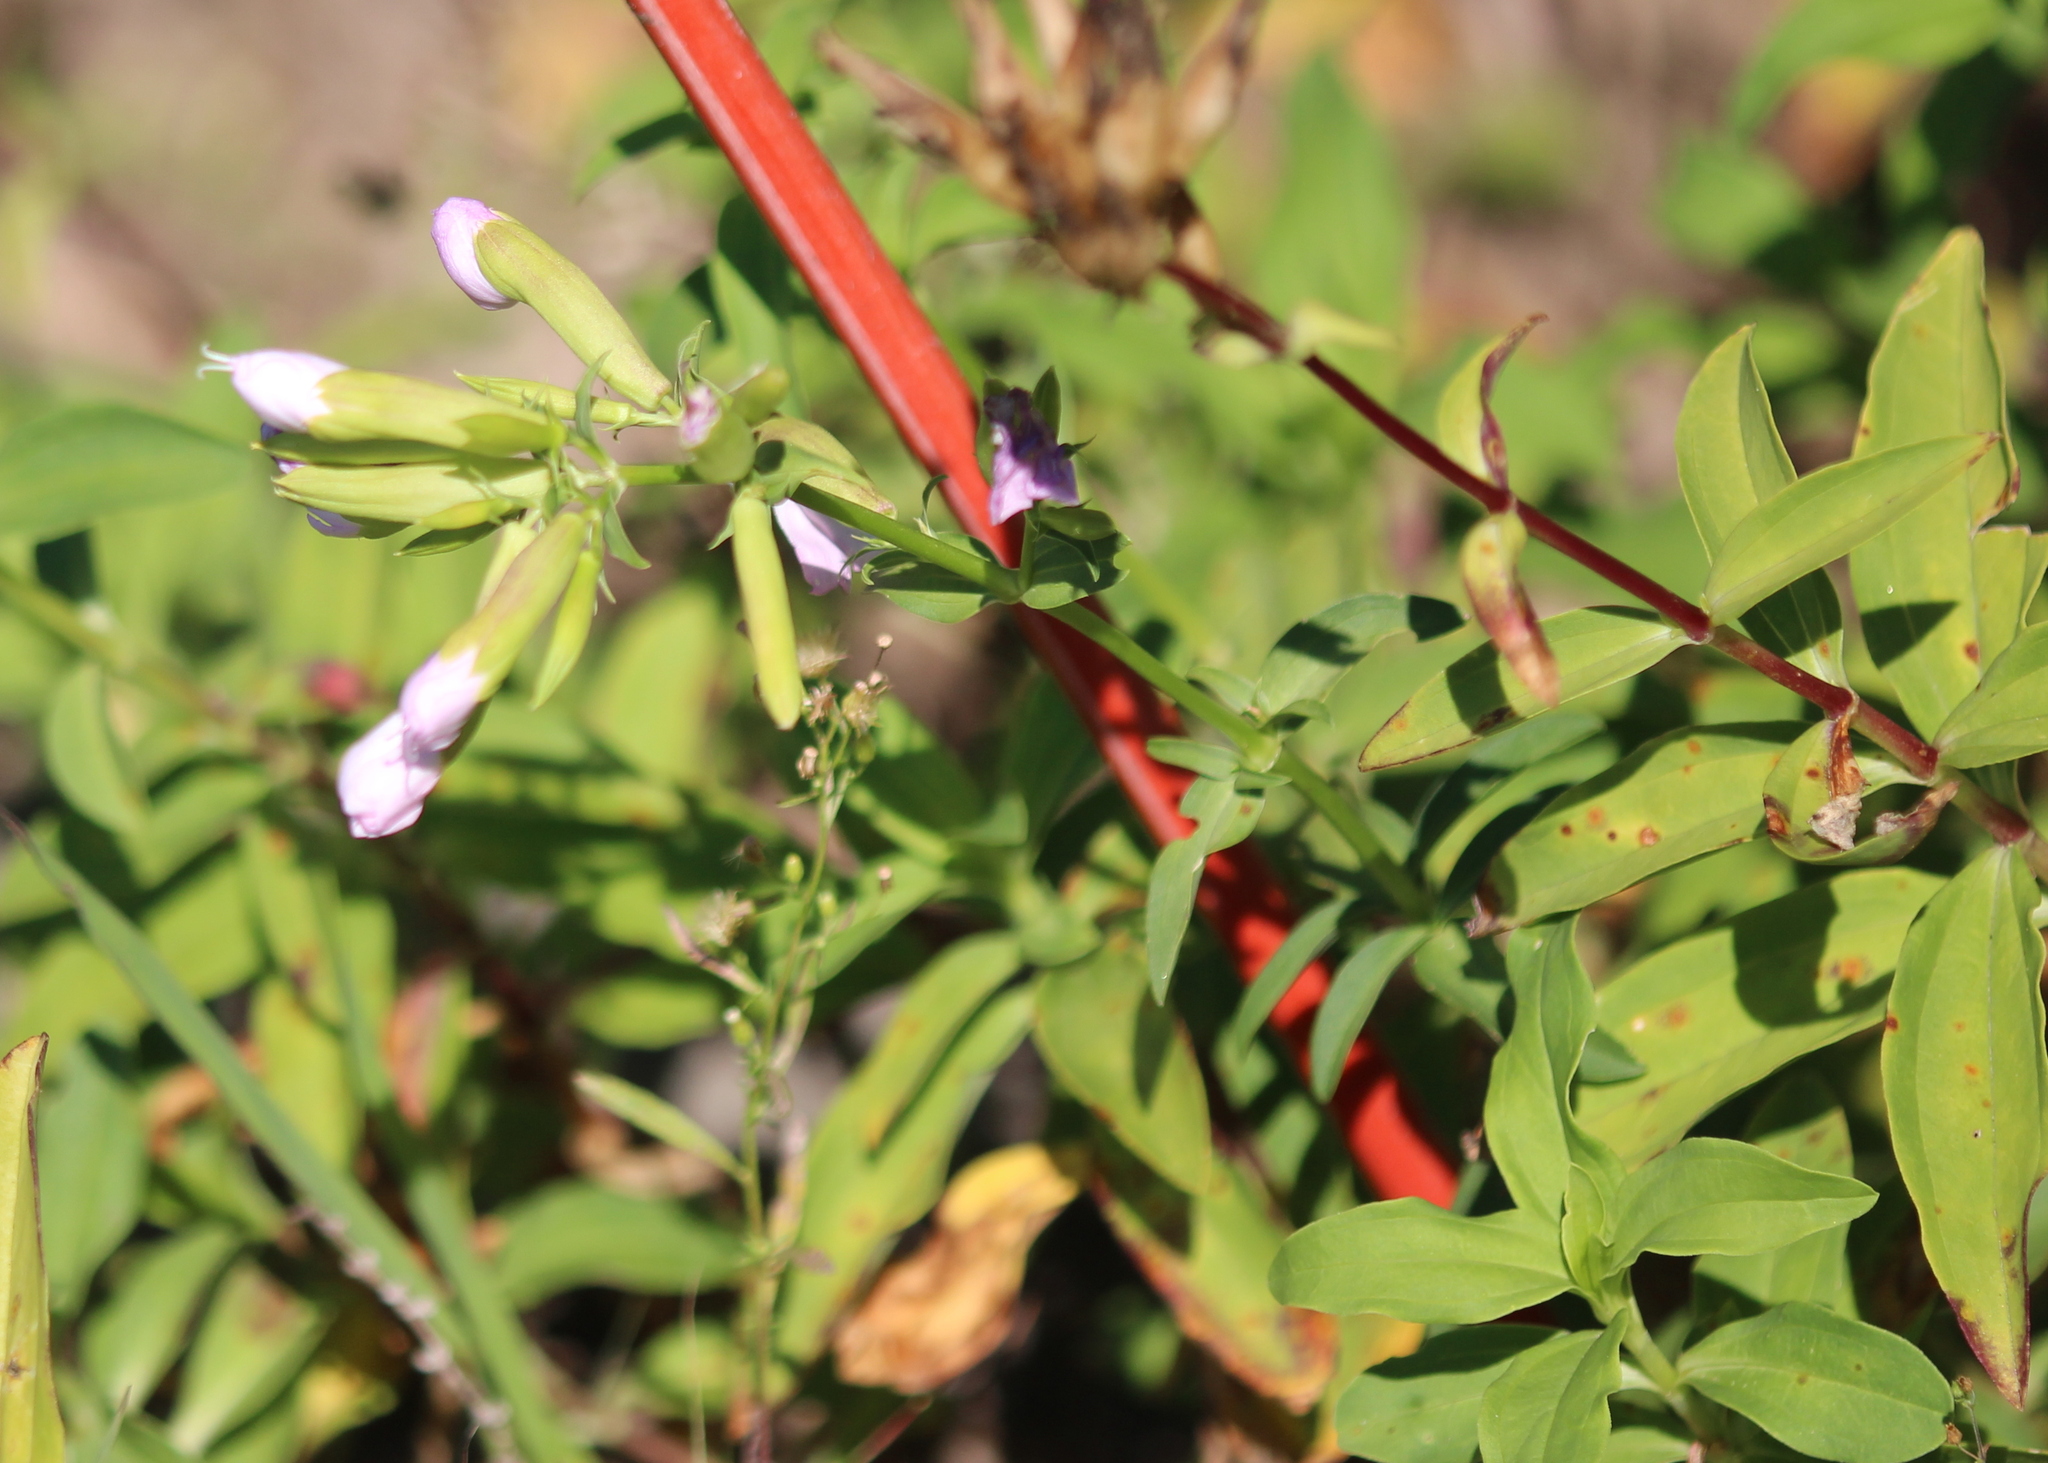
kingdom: Plantae
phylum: Tracheophyta
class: Magnoliopsida
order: Caryophyllales
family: Caryophyllaceae
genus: Saponaria
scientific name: Saponaria officinalis
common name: Soapwort
